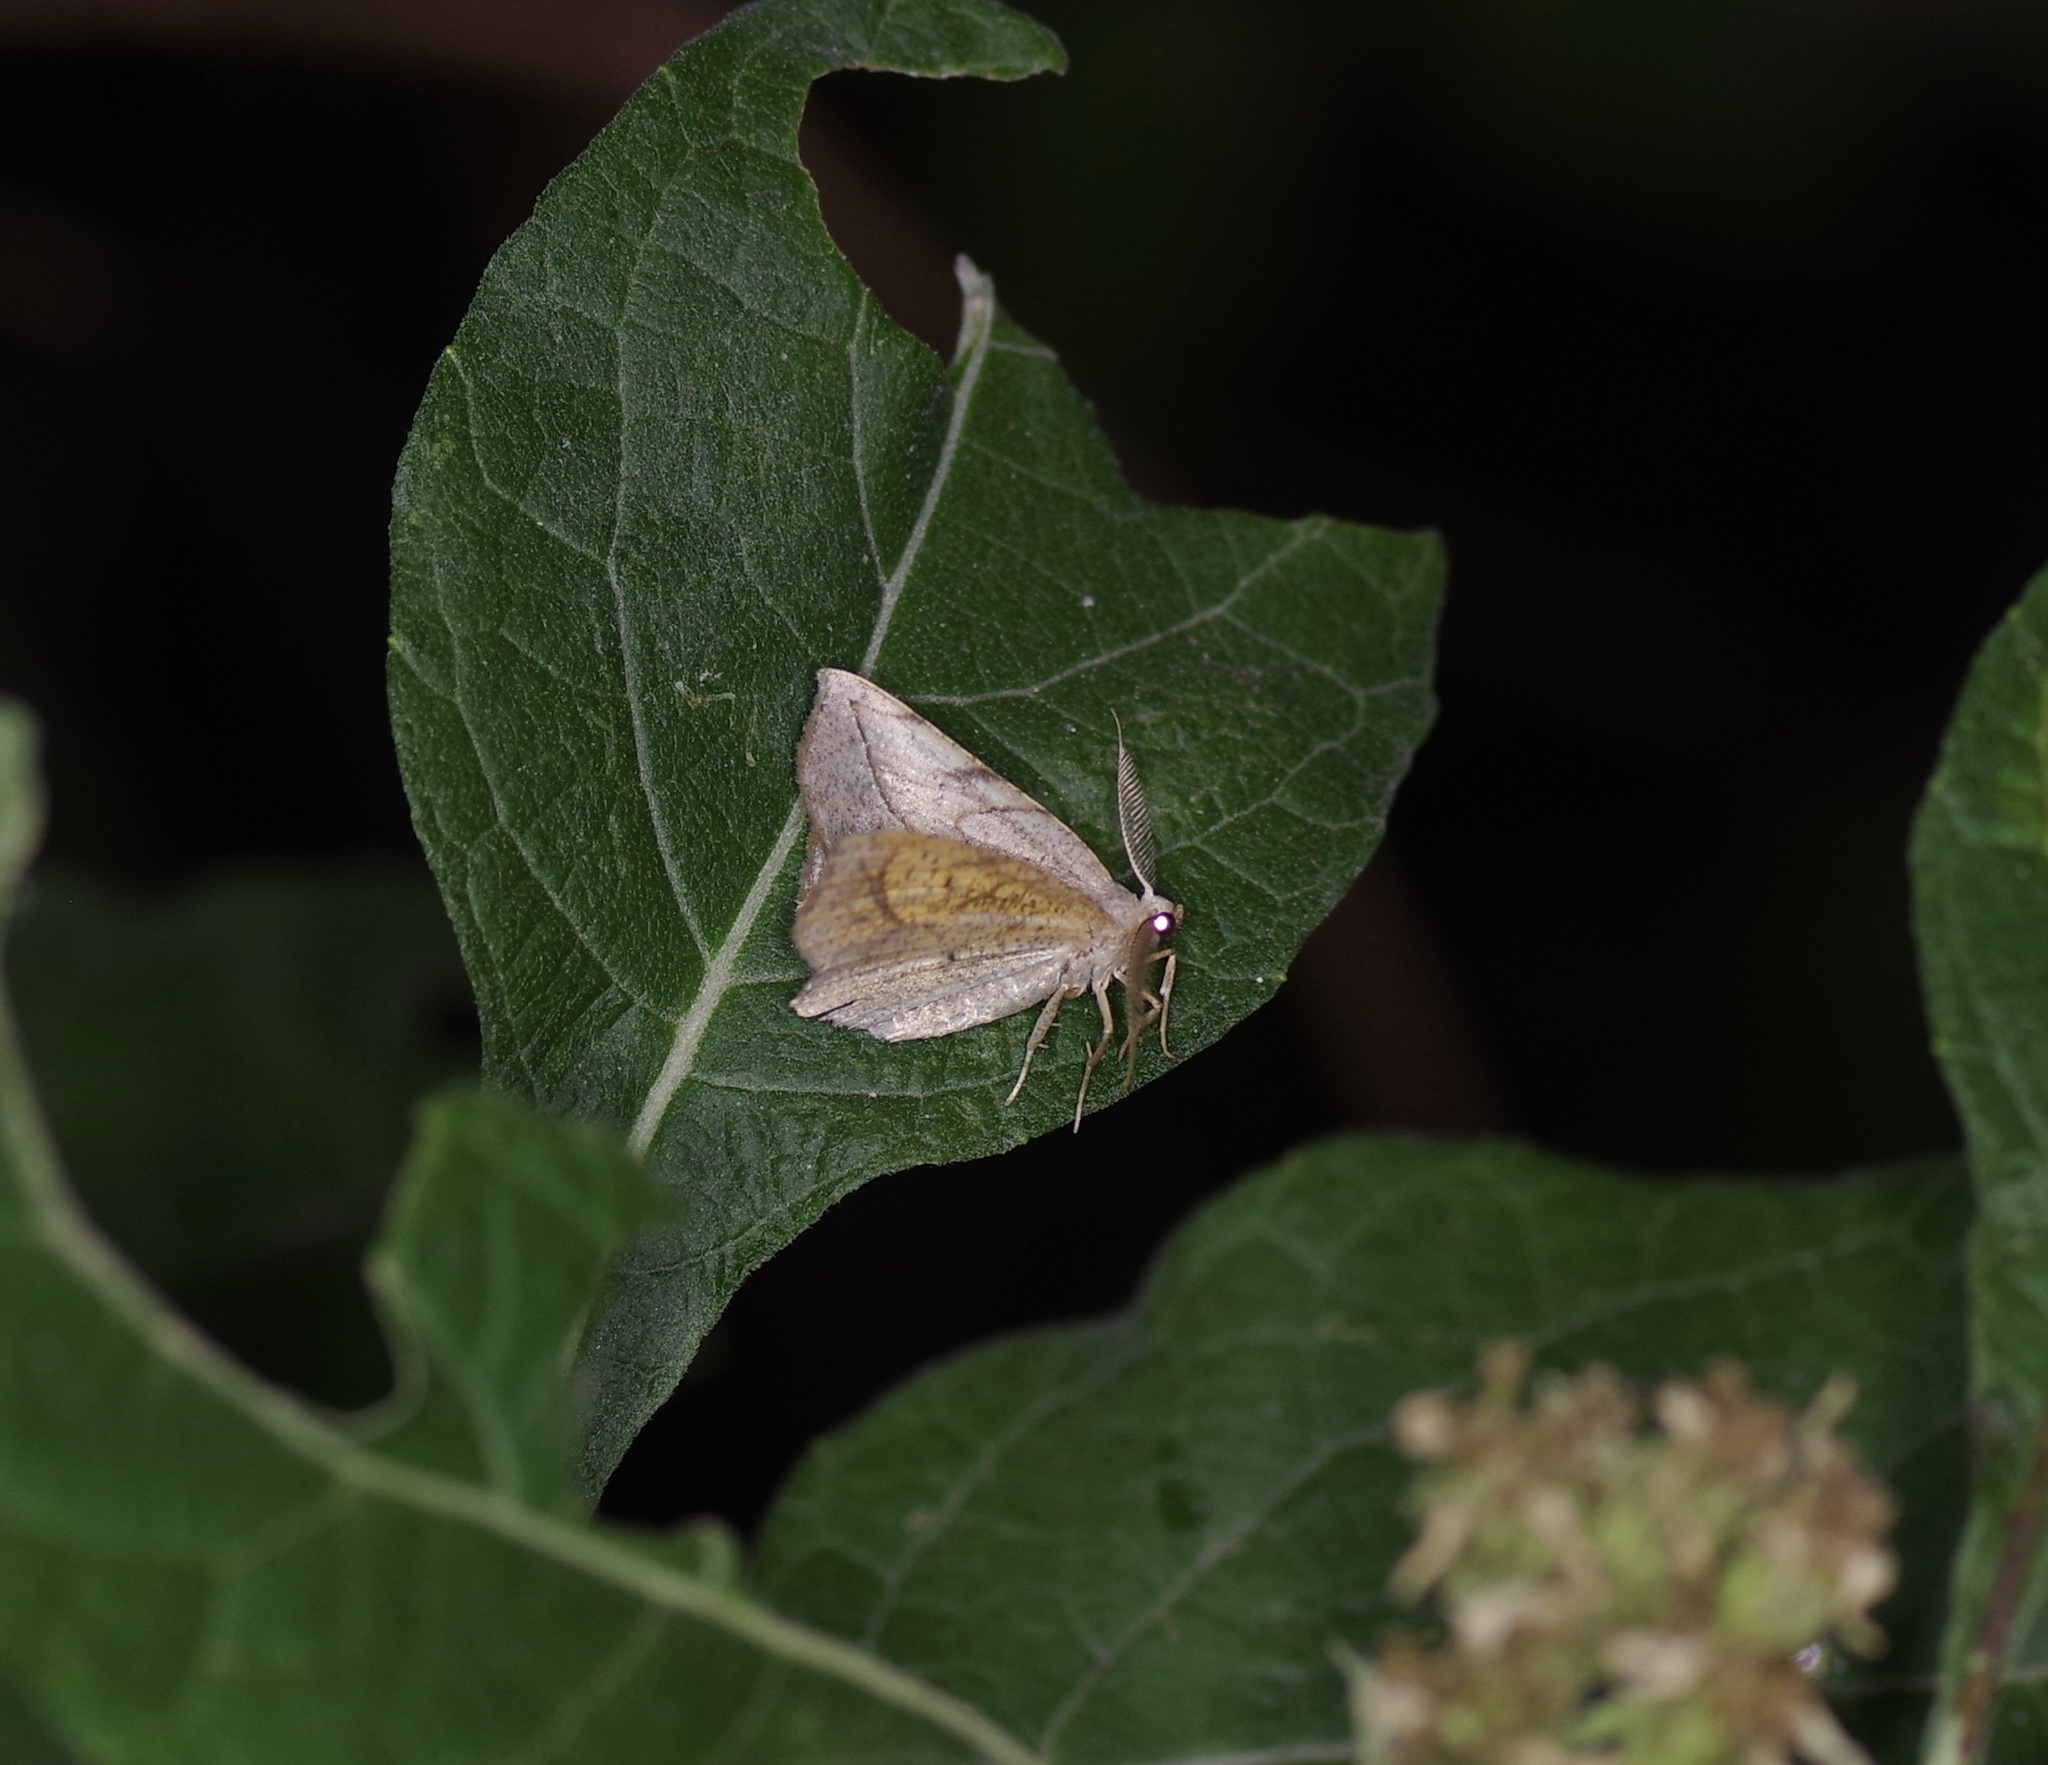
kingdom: Animalia
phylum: Arthropoda
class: Insecta
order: Lepidoptera
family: Geometridae
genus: Eusarca
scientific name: Eusarca packardaria
